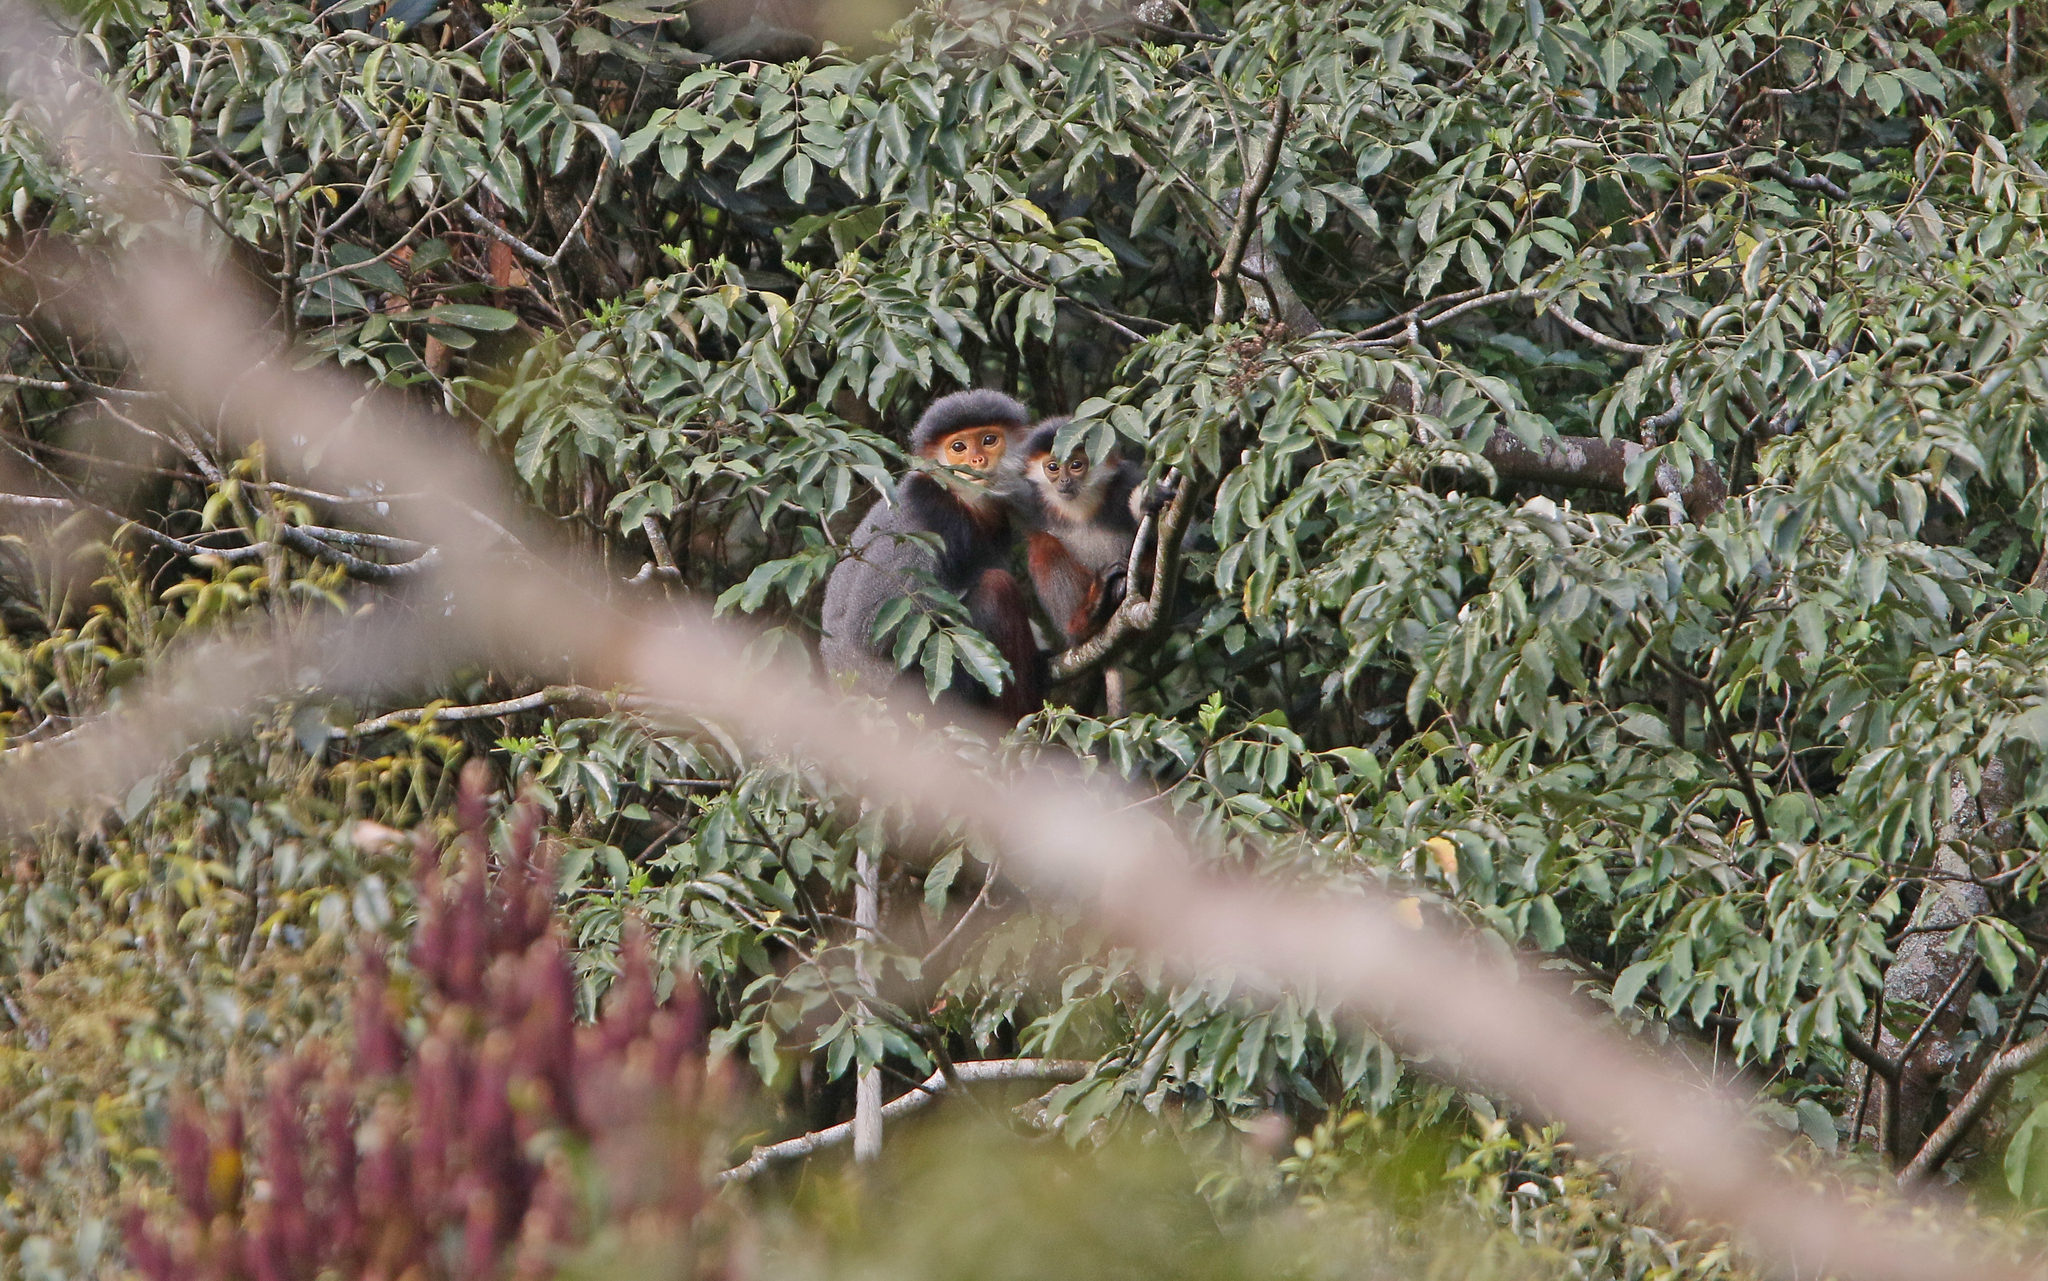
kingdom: Animalia
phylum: Chordata
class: Mammalia
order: Primates
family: Cercopithecidae
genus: Pygathrix
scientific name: Pygathrix nemaeus
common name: Red-shanked douc
